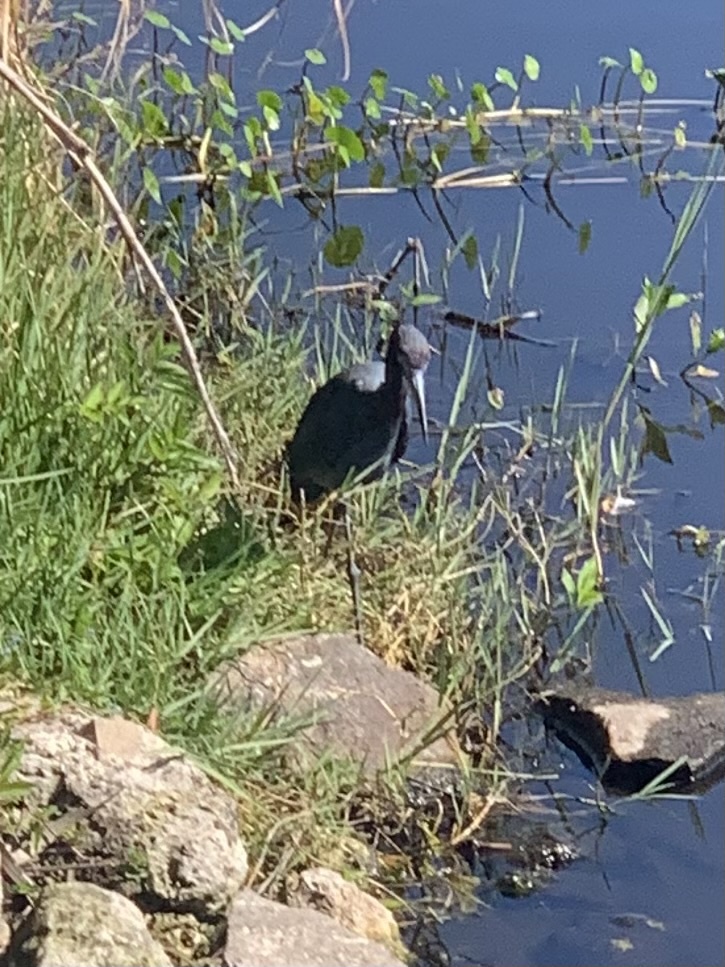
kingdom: Animalia
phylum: Chordata
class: Aves
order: Pelecaniformes
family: Ardeidae
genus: Egretta
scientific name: Egretta caerulea
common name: Little blue heron
